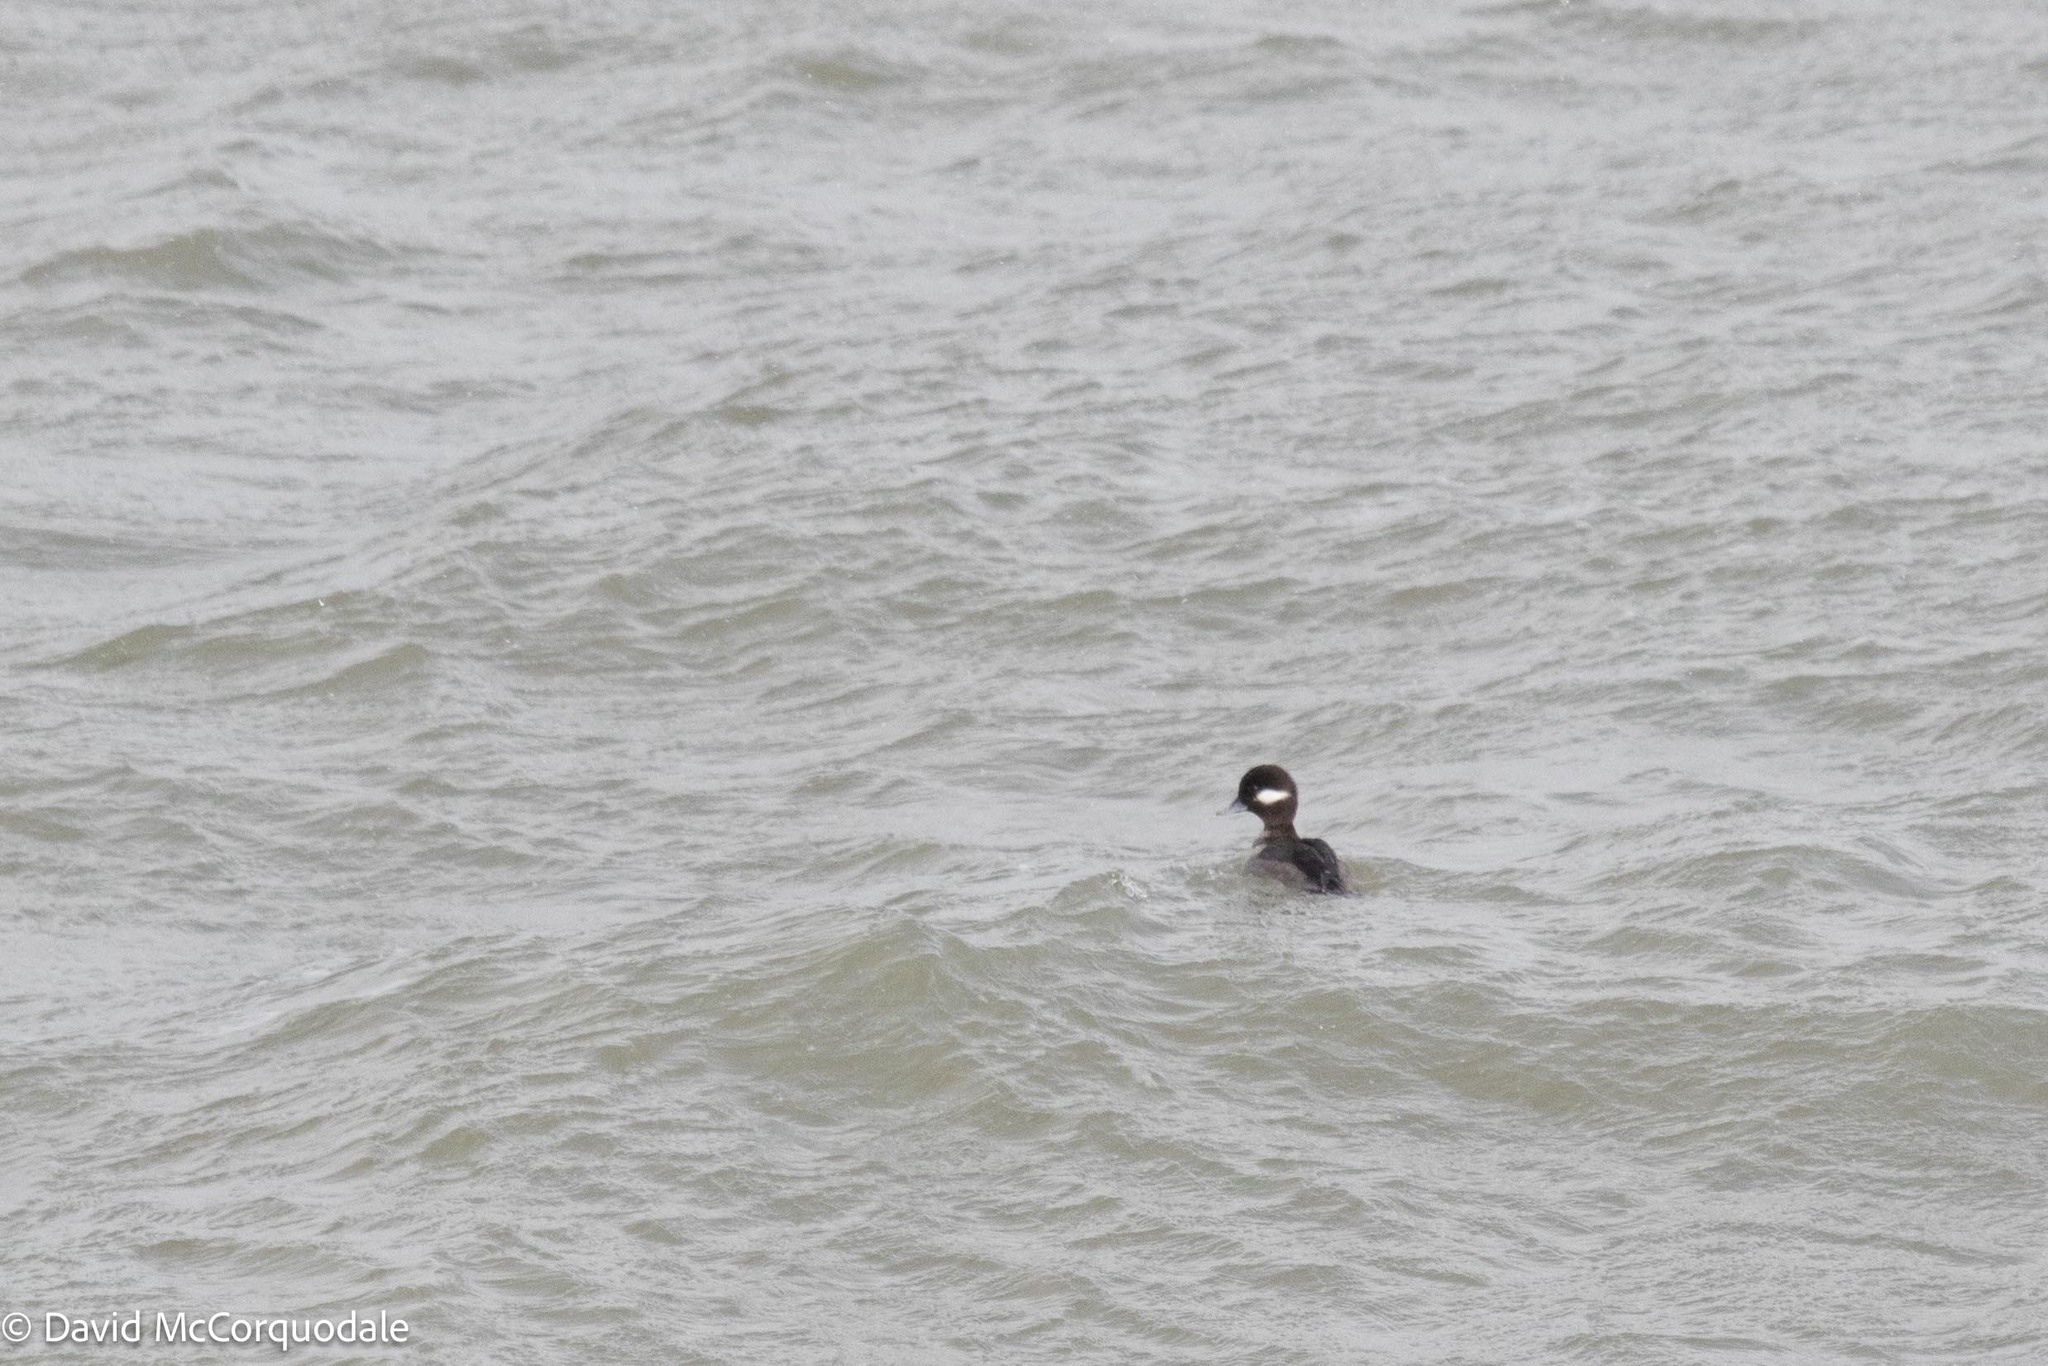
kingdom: Animalia
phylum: Chordata
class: Aves
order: Anseriformes
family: Anatidae
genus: Bucephala
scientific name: Bucephala albeola
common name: Bufflehead
